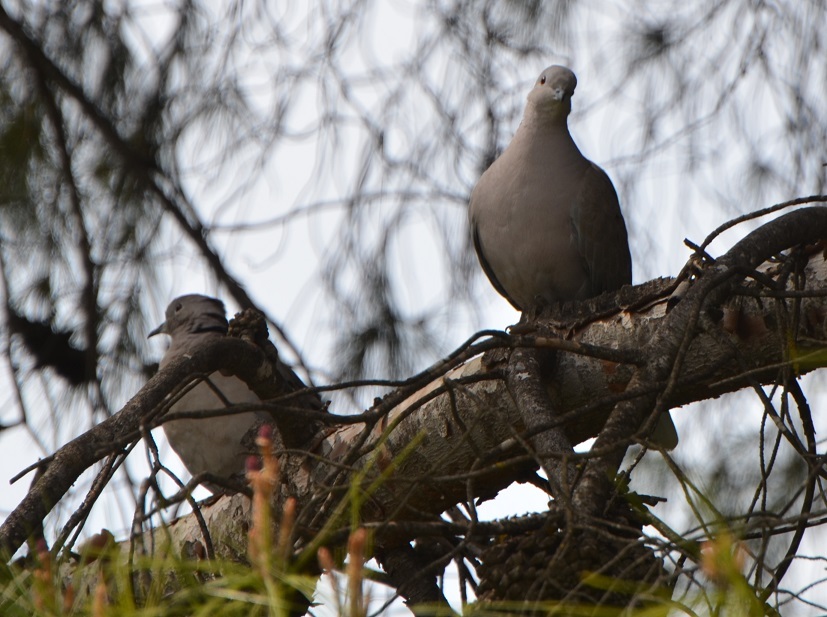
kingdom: Animalia
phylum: Chordata
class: Aves
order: Columbiformes
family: Columbidae
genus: Streptopelia
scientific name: Streptopelia decaocto
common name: Eurasian collared dove
